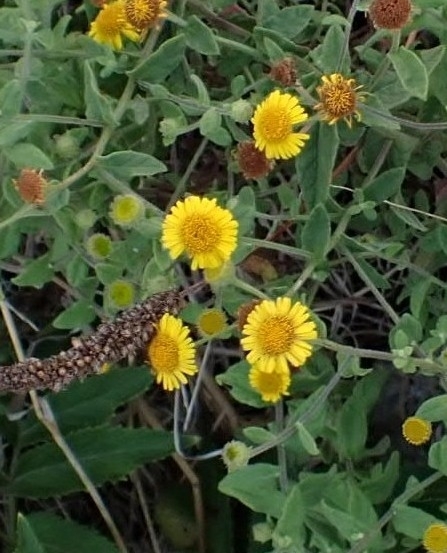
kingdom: Plantae
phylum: Tracheophyta
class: Magnoliopsida
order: Asterales
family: Asteraceae
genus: Pulicaria
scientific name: Pulicaria dysenterica
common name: Common fleabane
